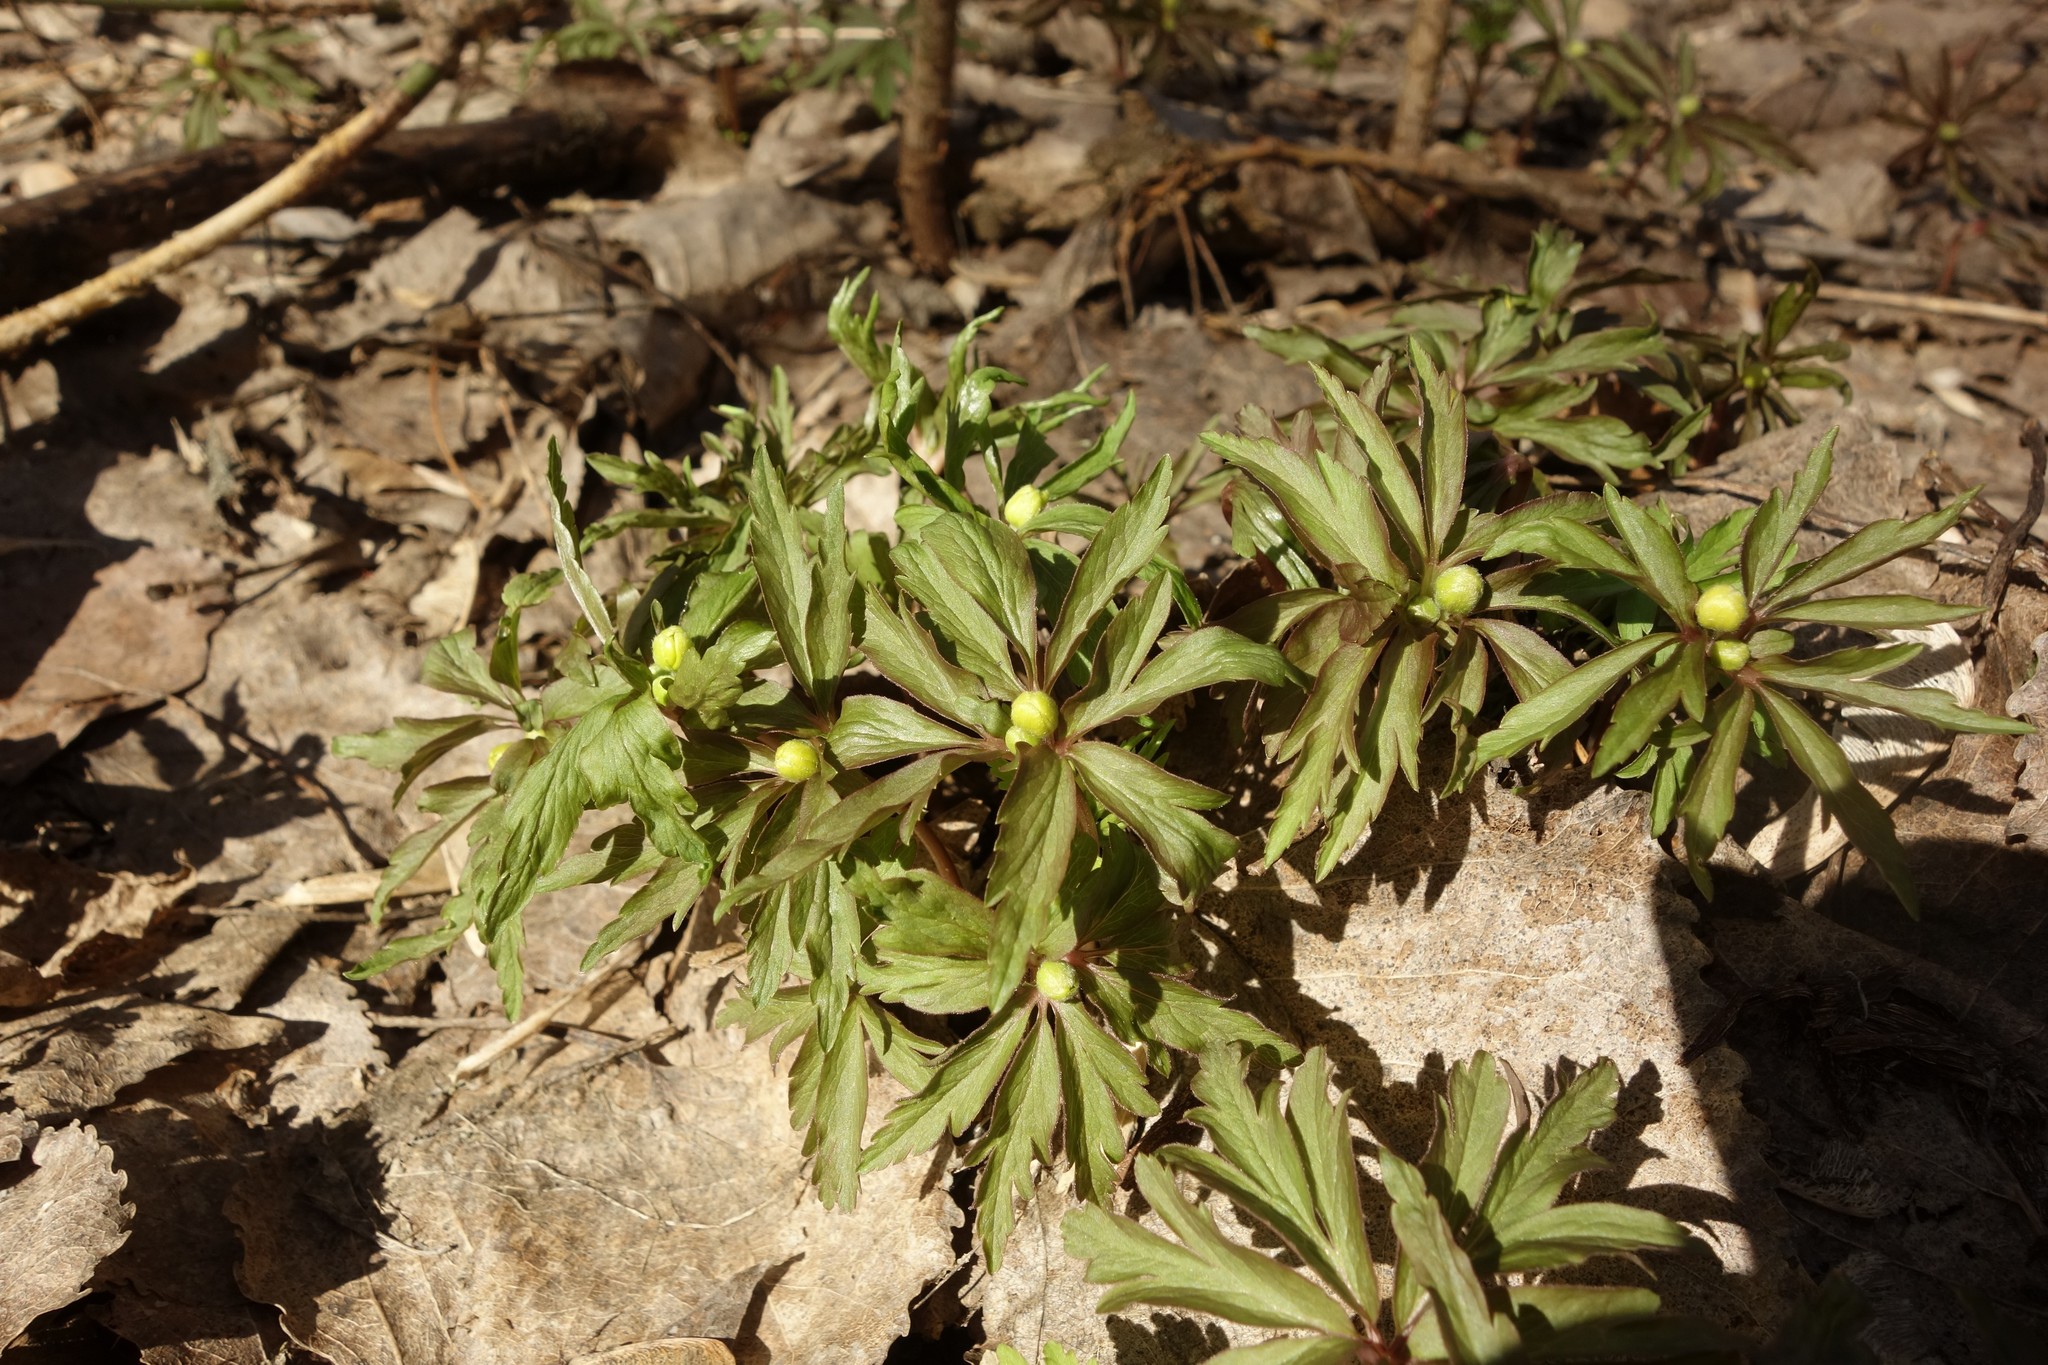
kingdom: Plantae
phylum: Tracheophyta
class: Magnoliopsida
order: Ranunculales
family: Ranunculaceae
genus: Anemone
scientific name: Anemone ranunculoides
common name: Yellow anemone
